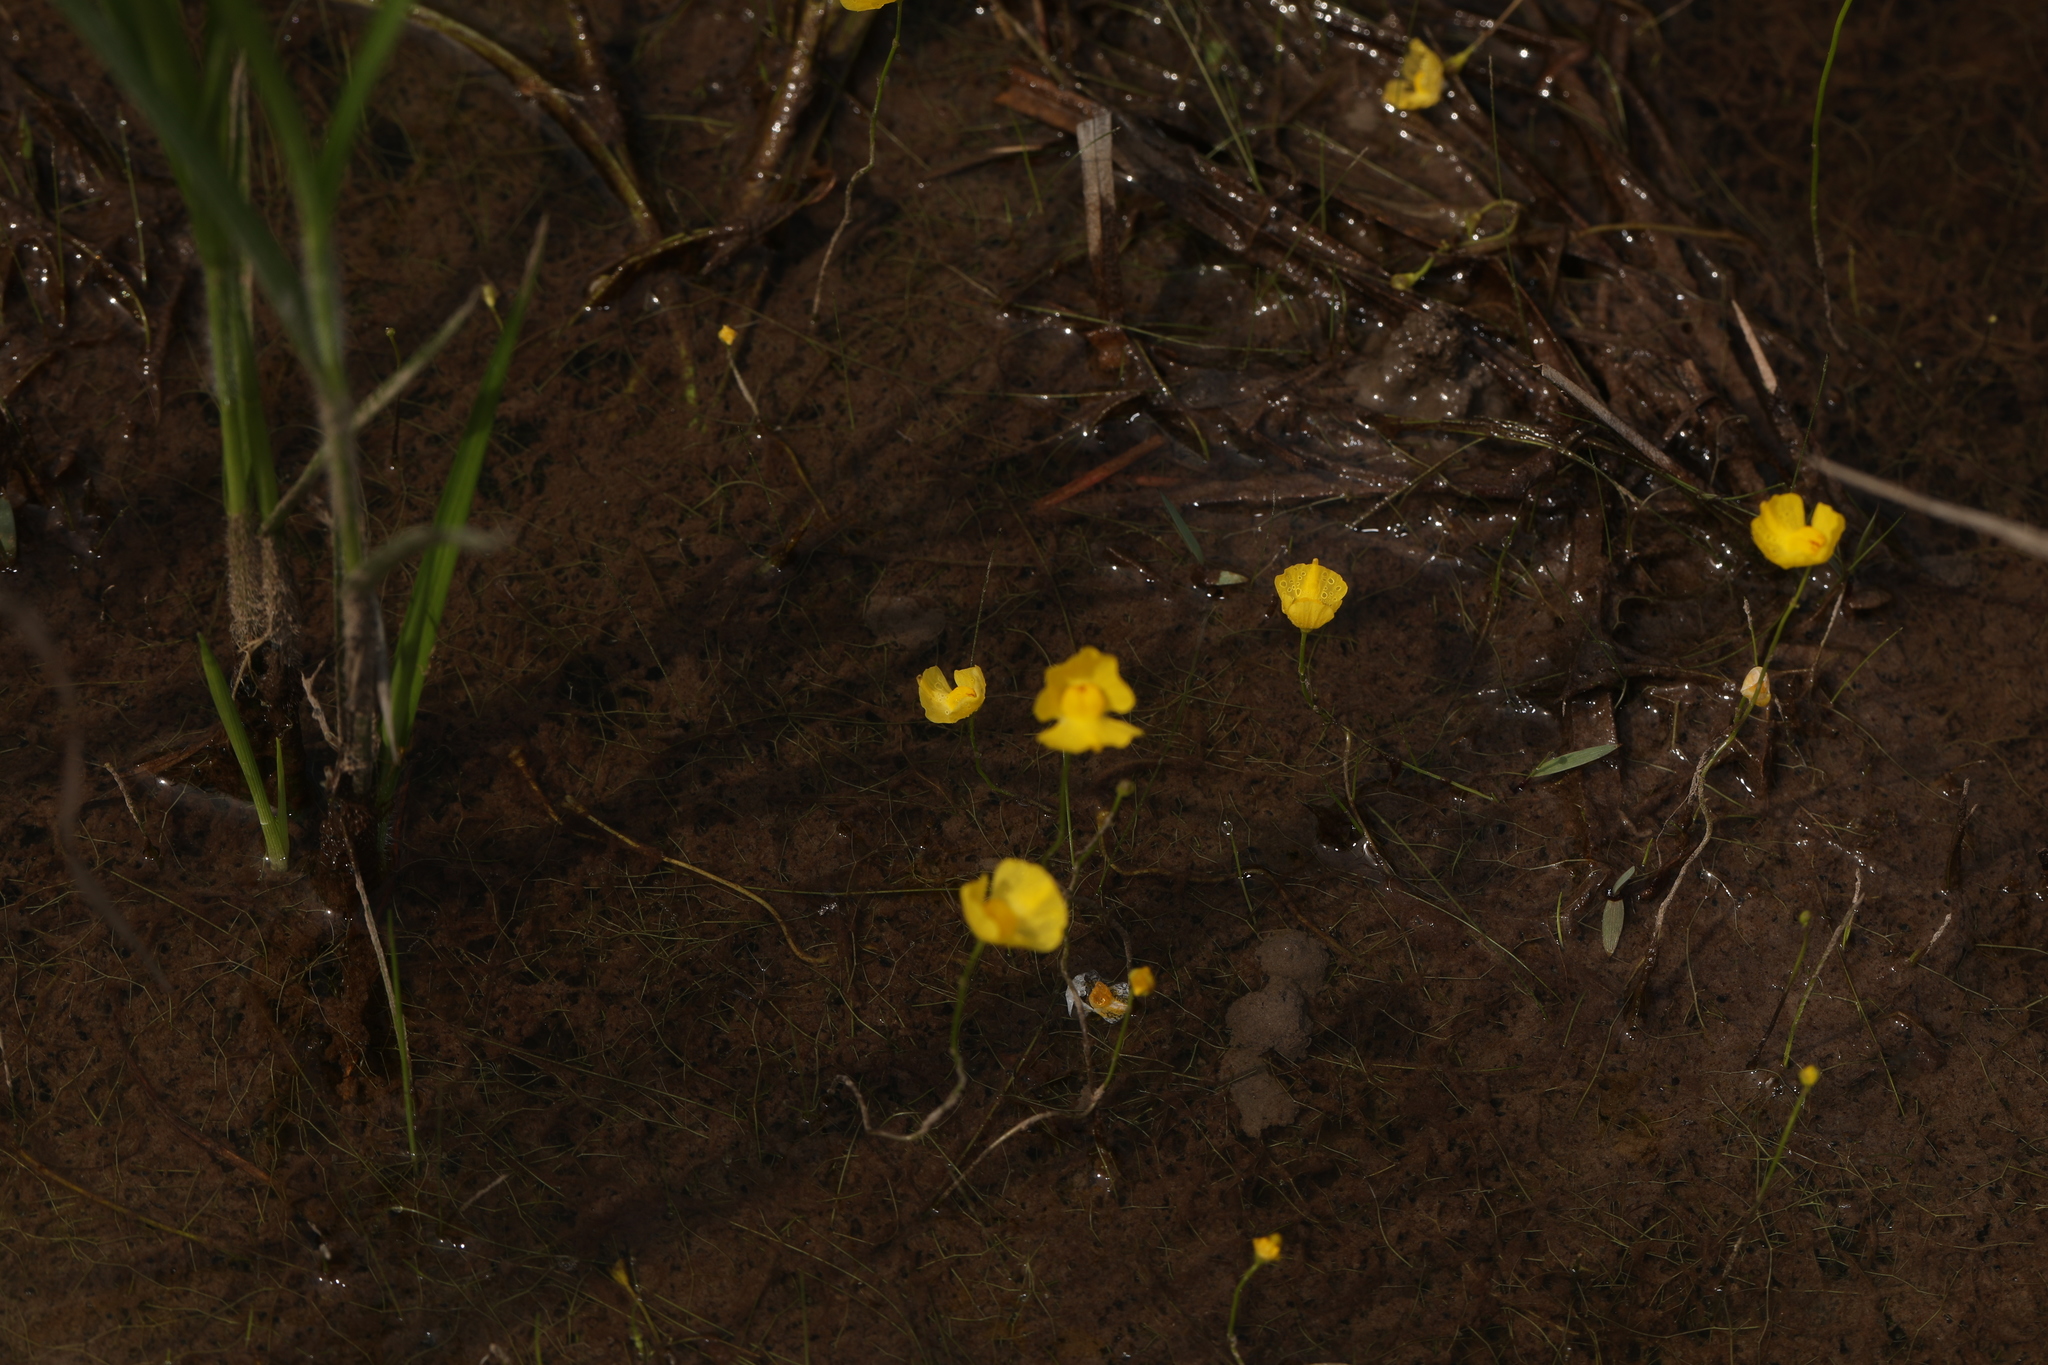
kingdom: Plantae
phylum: Tracheophyta
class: Magnoliopsida
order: Lamiales
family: Lentibulariaceae
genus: Utricularia
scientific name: Utricularia gibba
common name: Humped bladderwort
